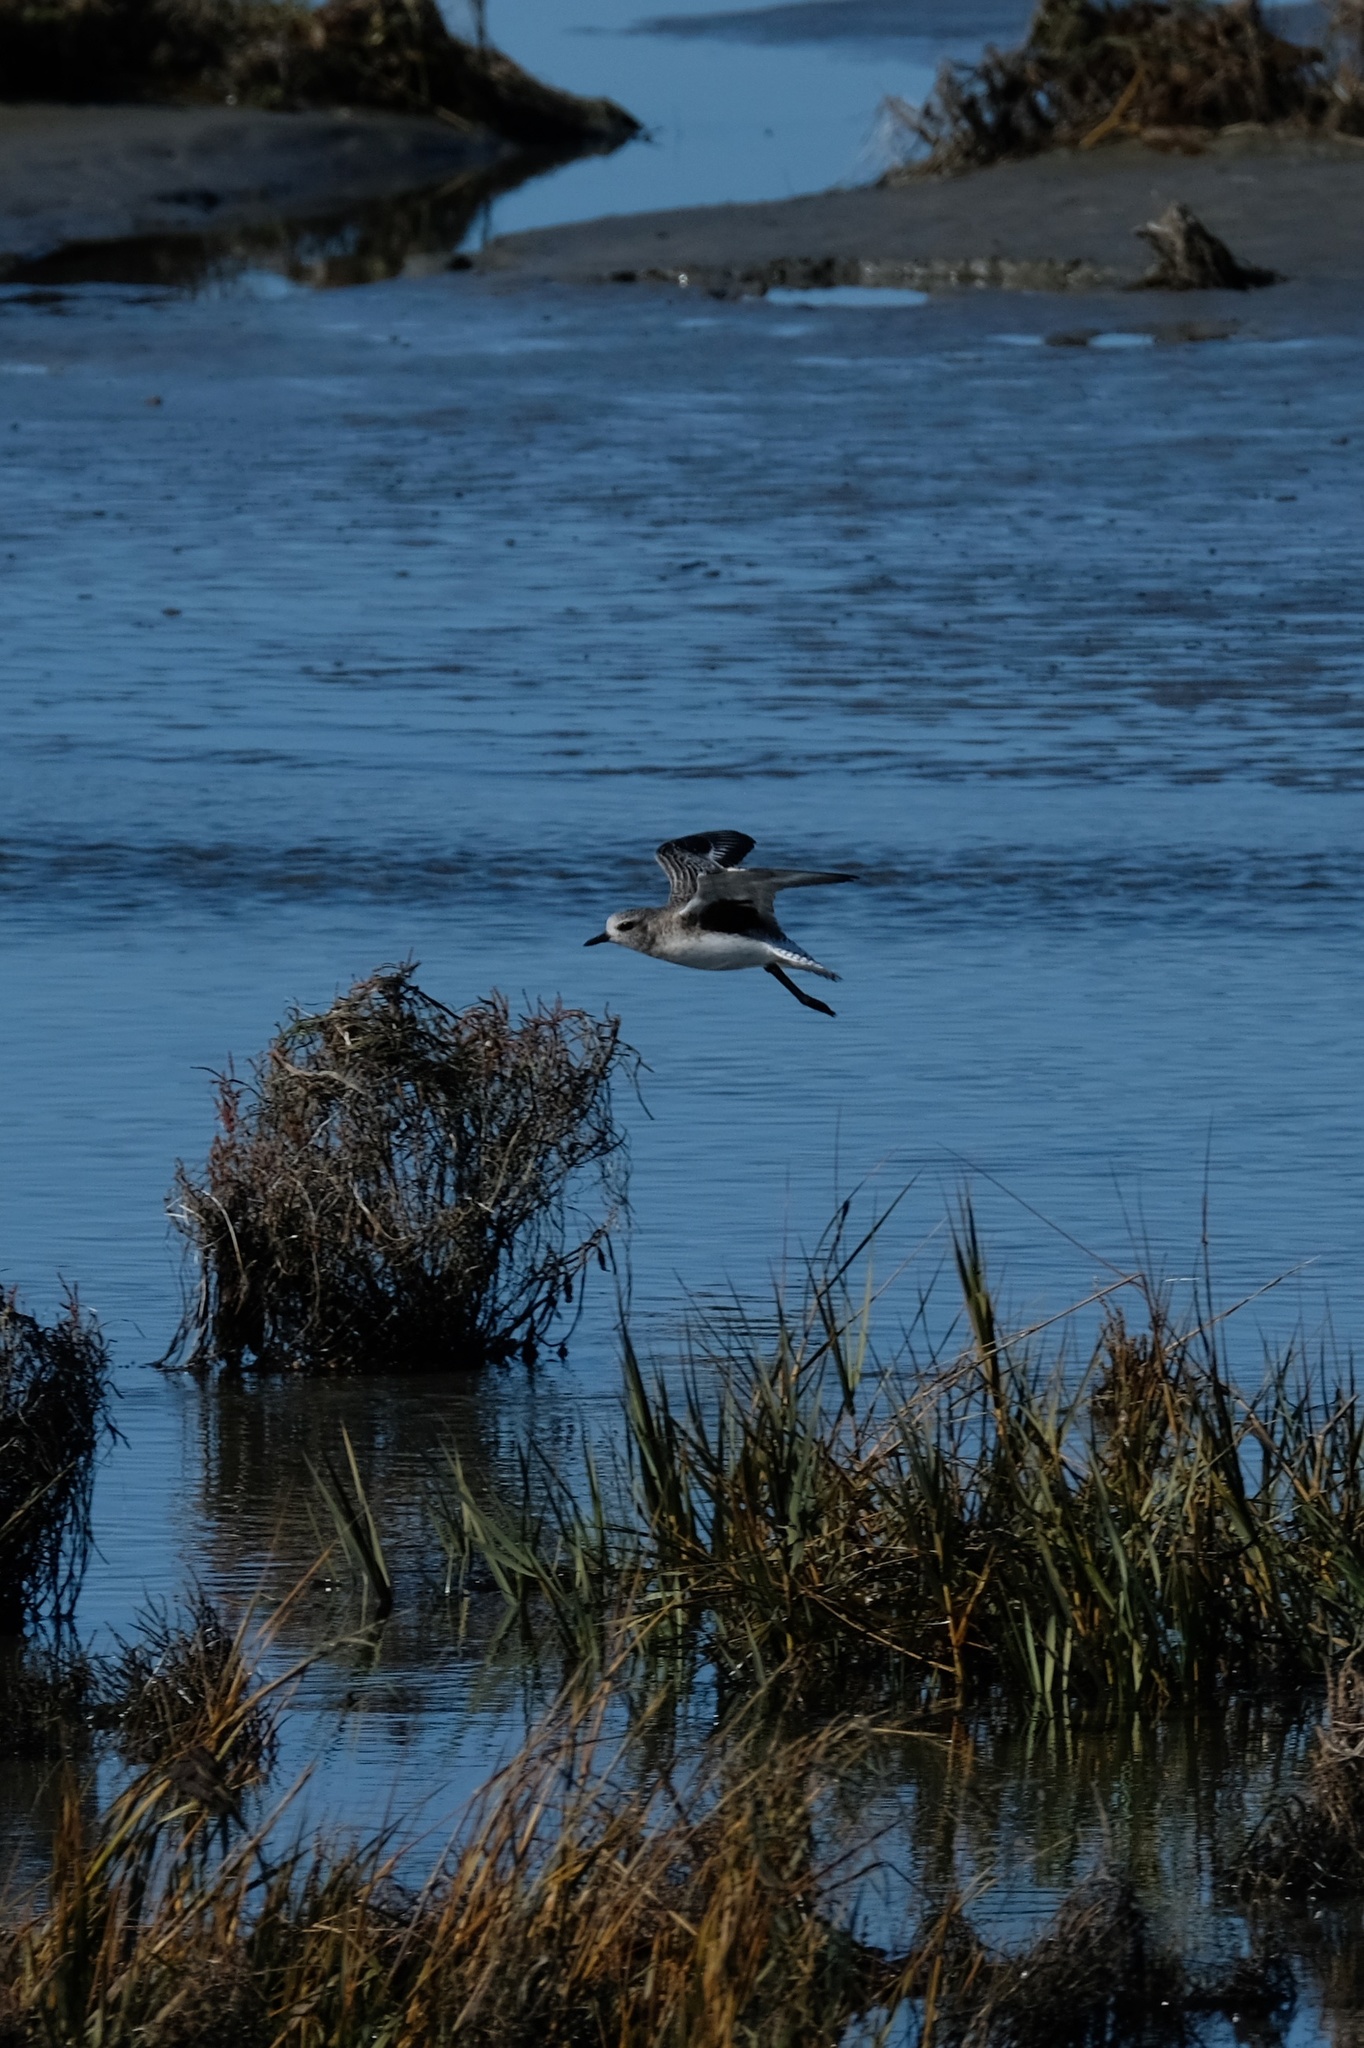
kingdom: Animalia
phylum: Chordata
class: Aves
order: Charadriiformes
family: Charadriidae
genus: Pluvialis
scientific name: Pluvialis squatarola
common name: Grey plover
